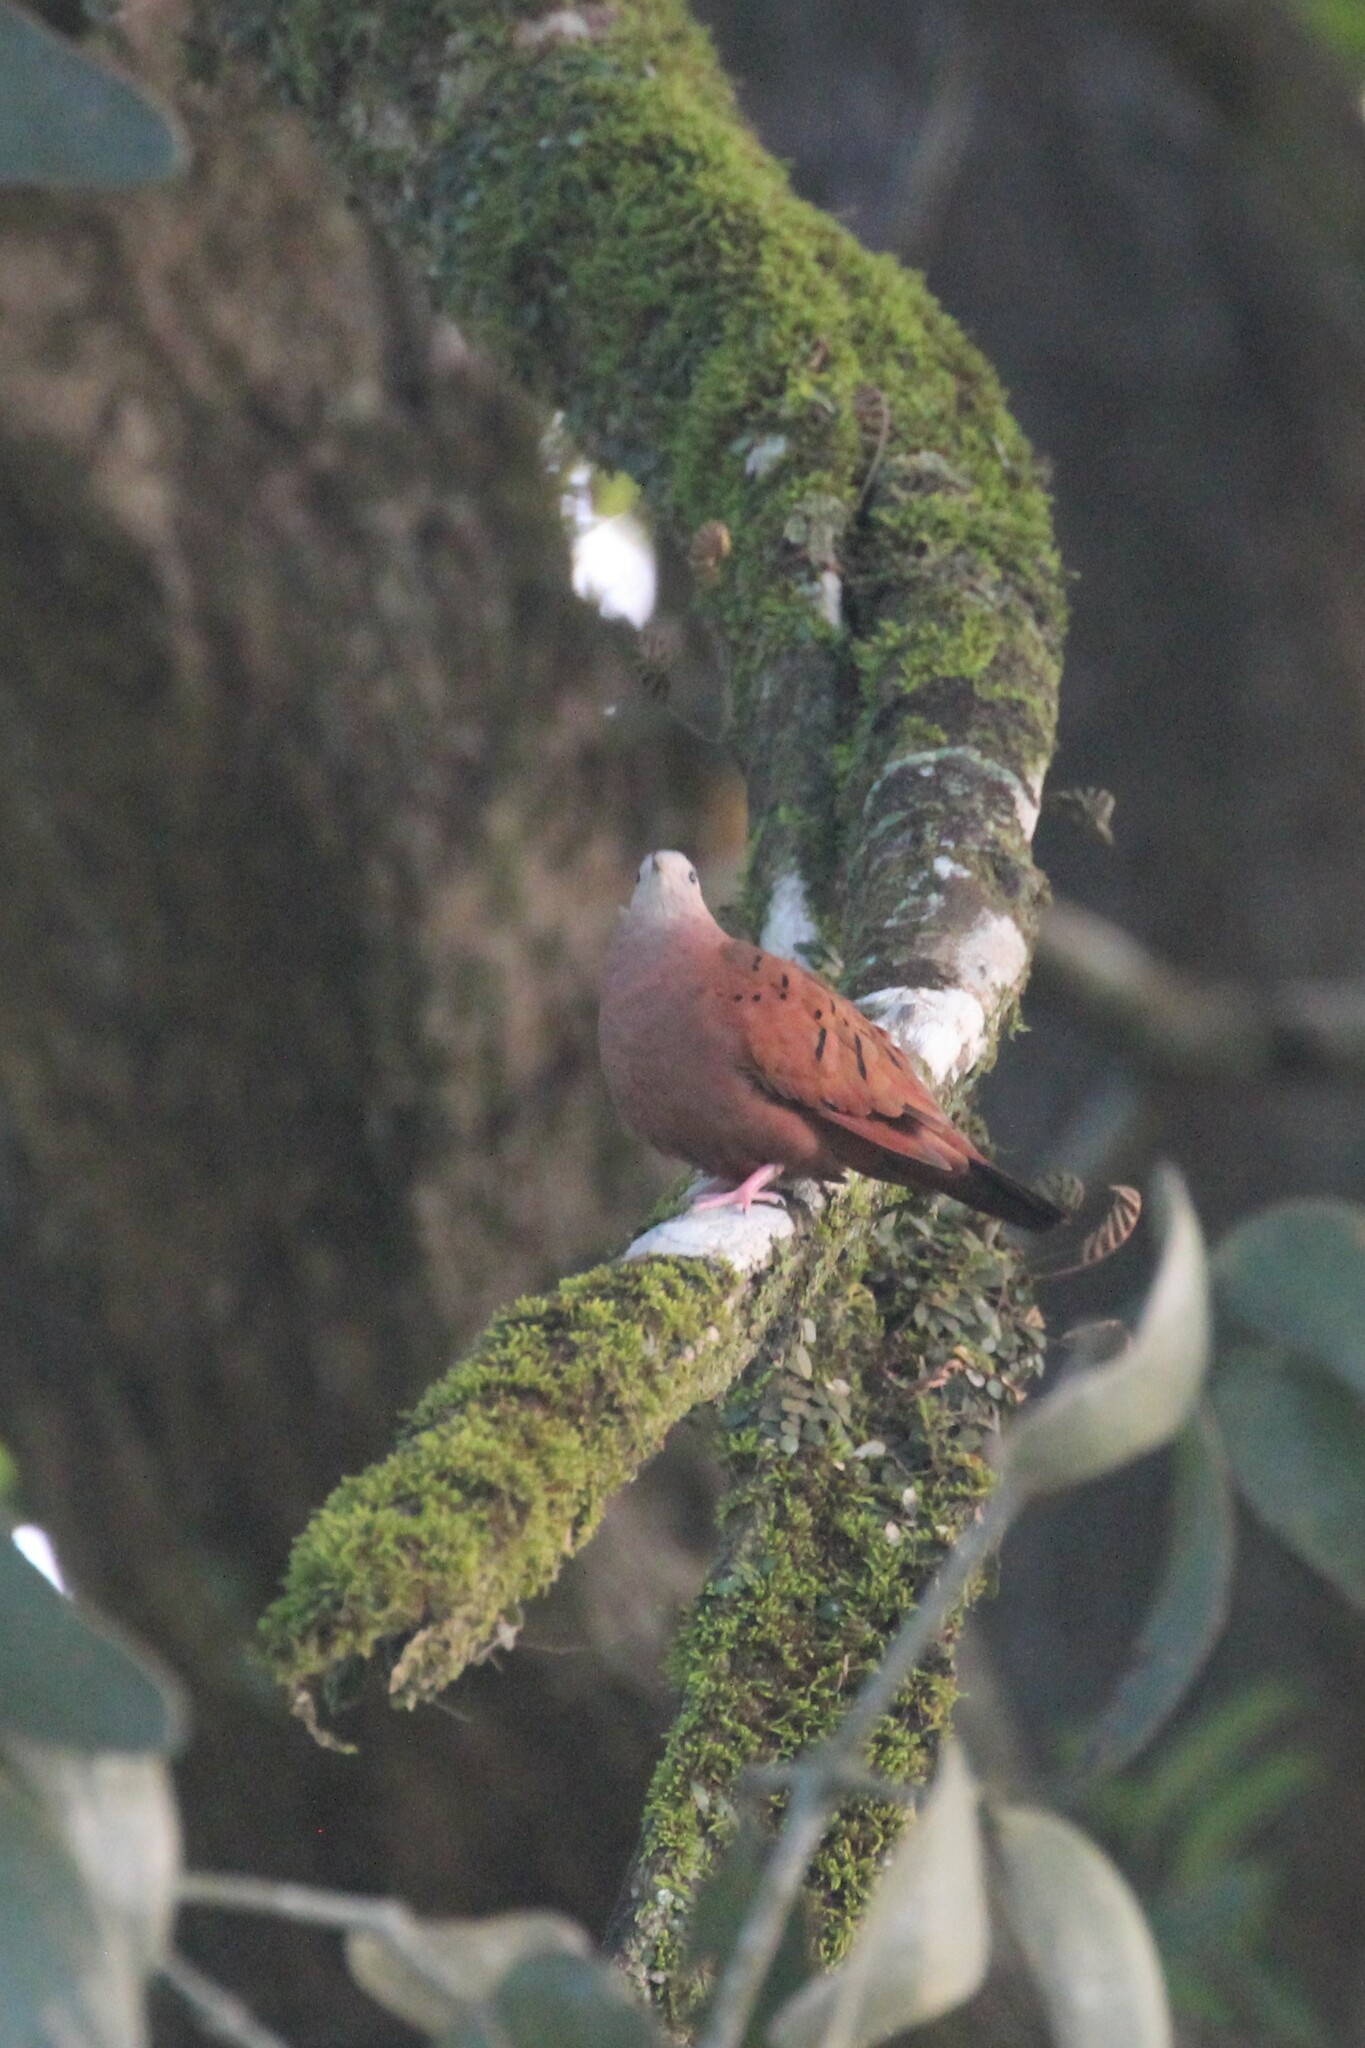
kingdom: Animalia
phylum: Chordata
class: Aves
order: Columbiformes
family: Columbidae
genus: Columbina
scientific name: Columbina talpacoti
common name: Ruddy ground dove
